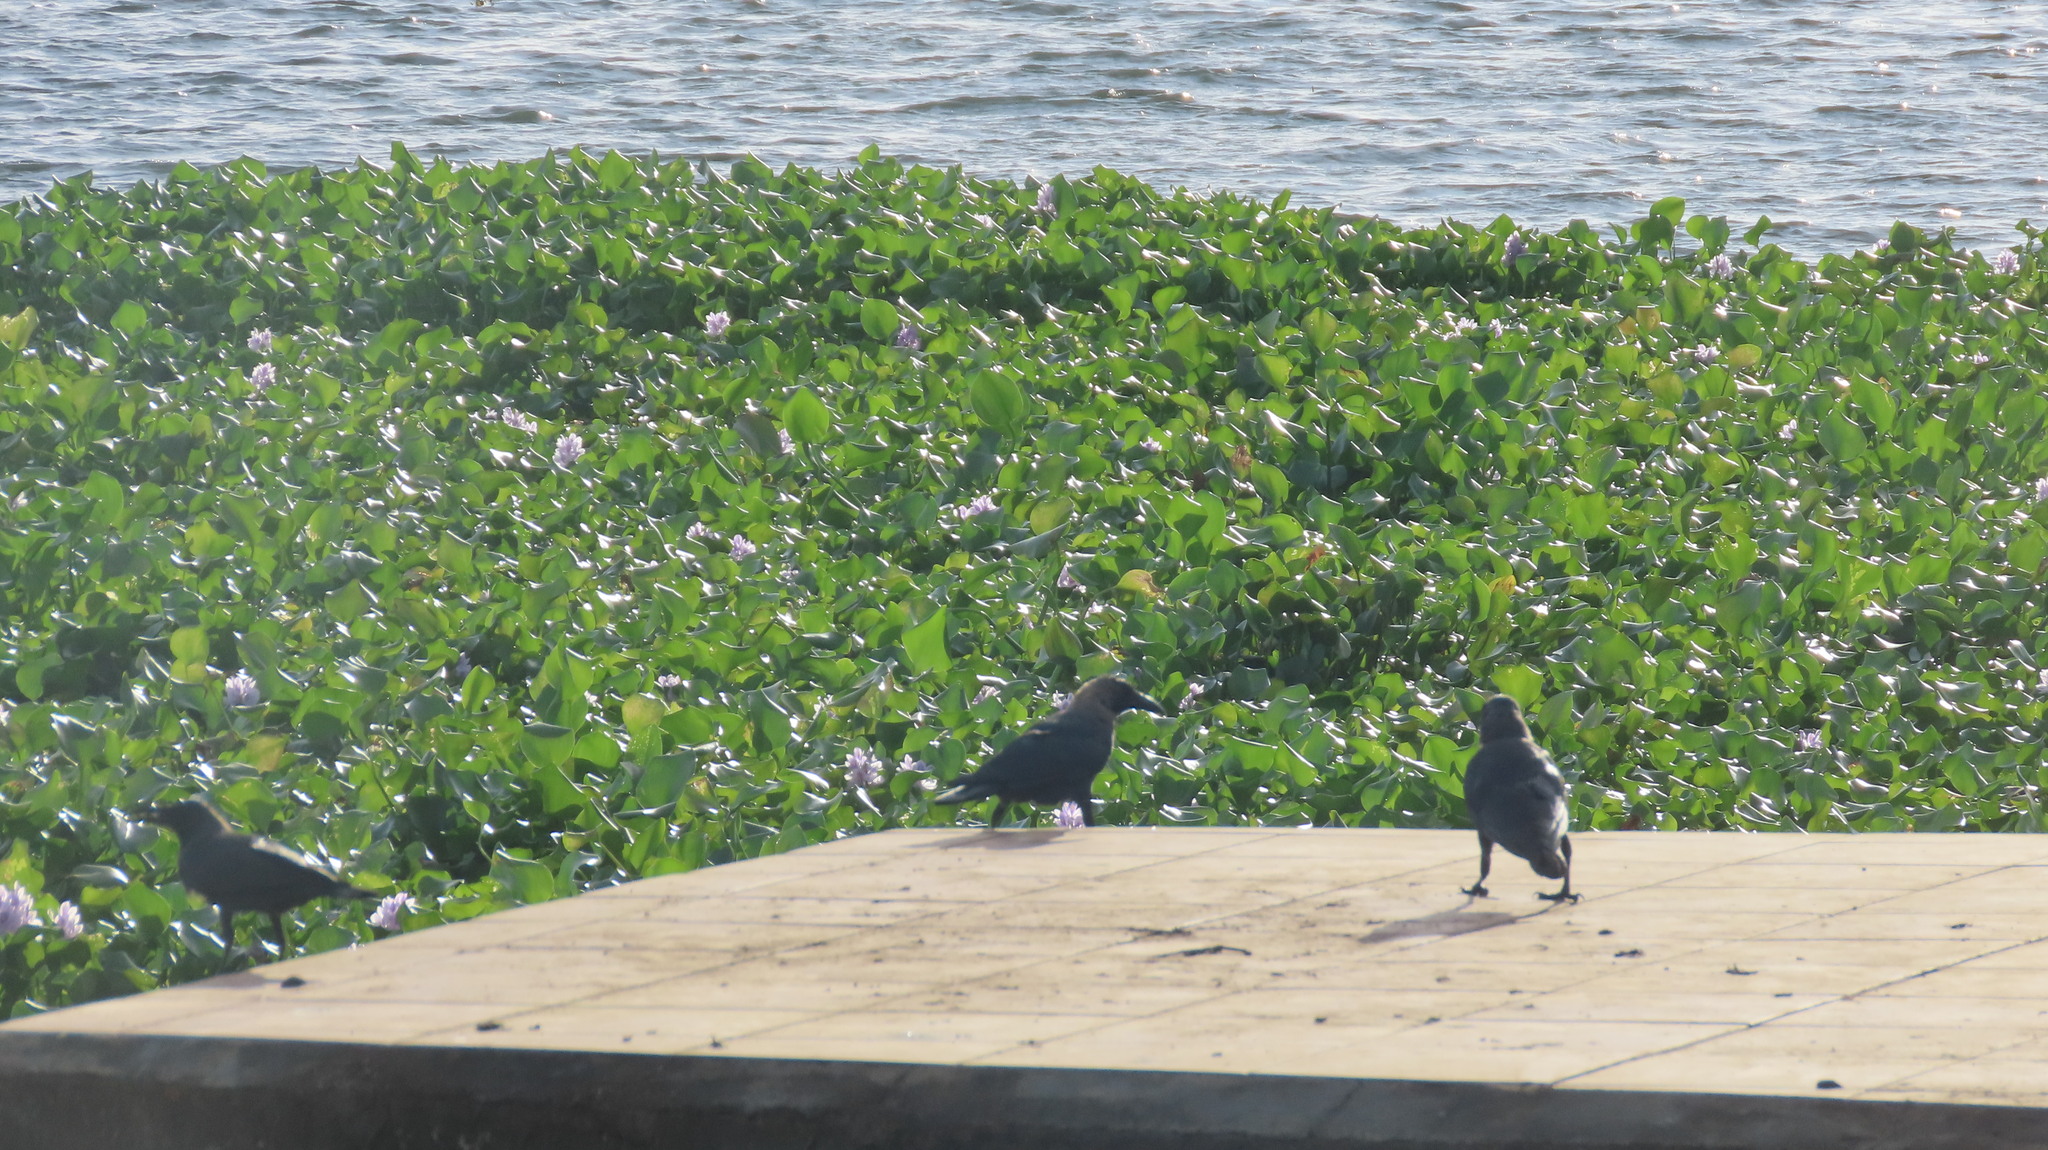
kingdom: Animalia
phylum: Chordata
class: Aves
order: Passeriformes
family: Corvidae
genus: Corvus
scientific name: Corvus splendens
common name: House crow
